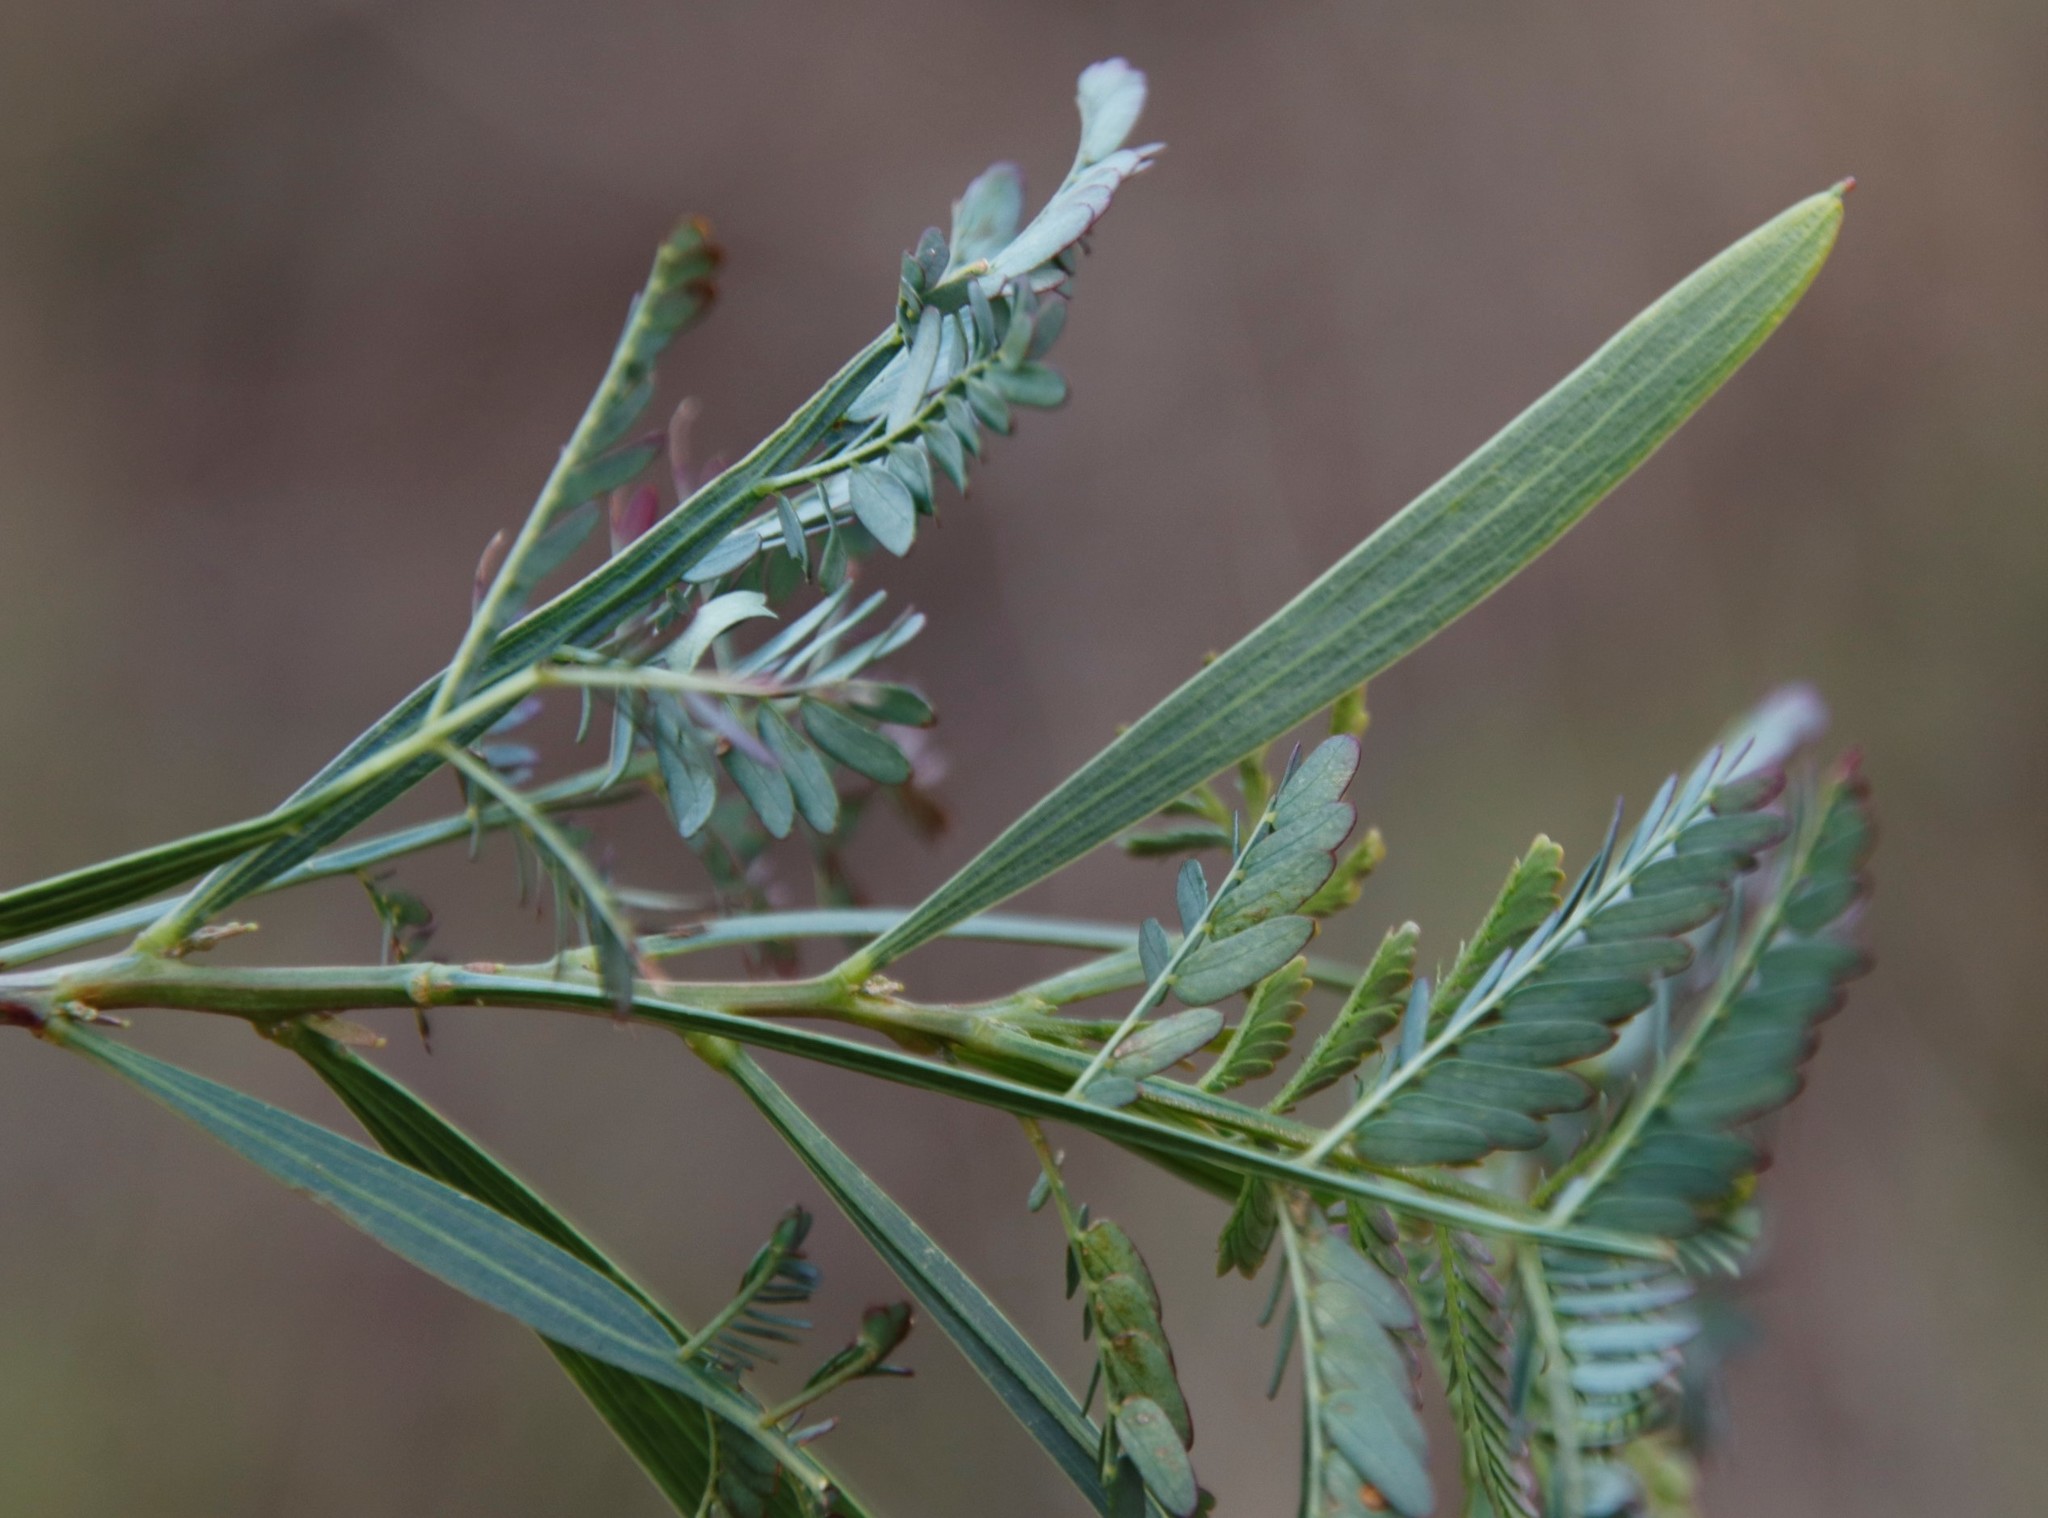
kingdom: Plantae
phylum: Tracheophyta
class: Magnoliopsida
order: Fabales
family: Fabaceae
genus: Acacia
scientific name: Acacia implexa
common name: Black wattle
